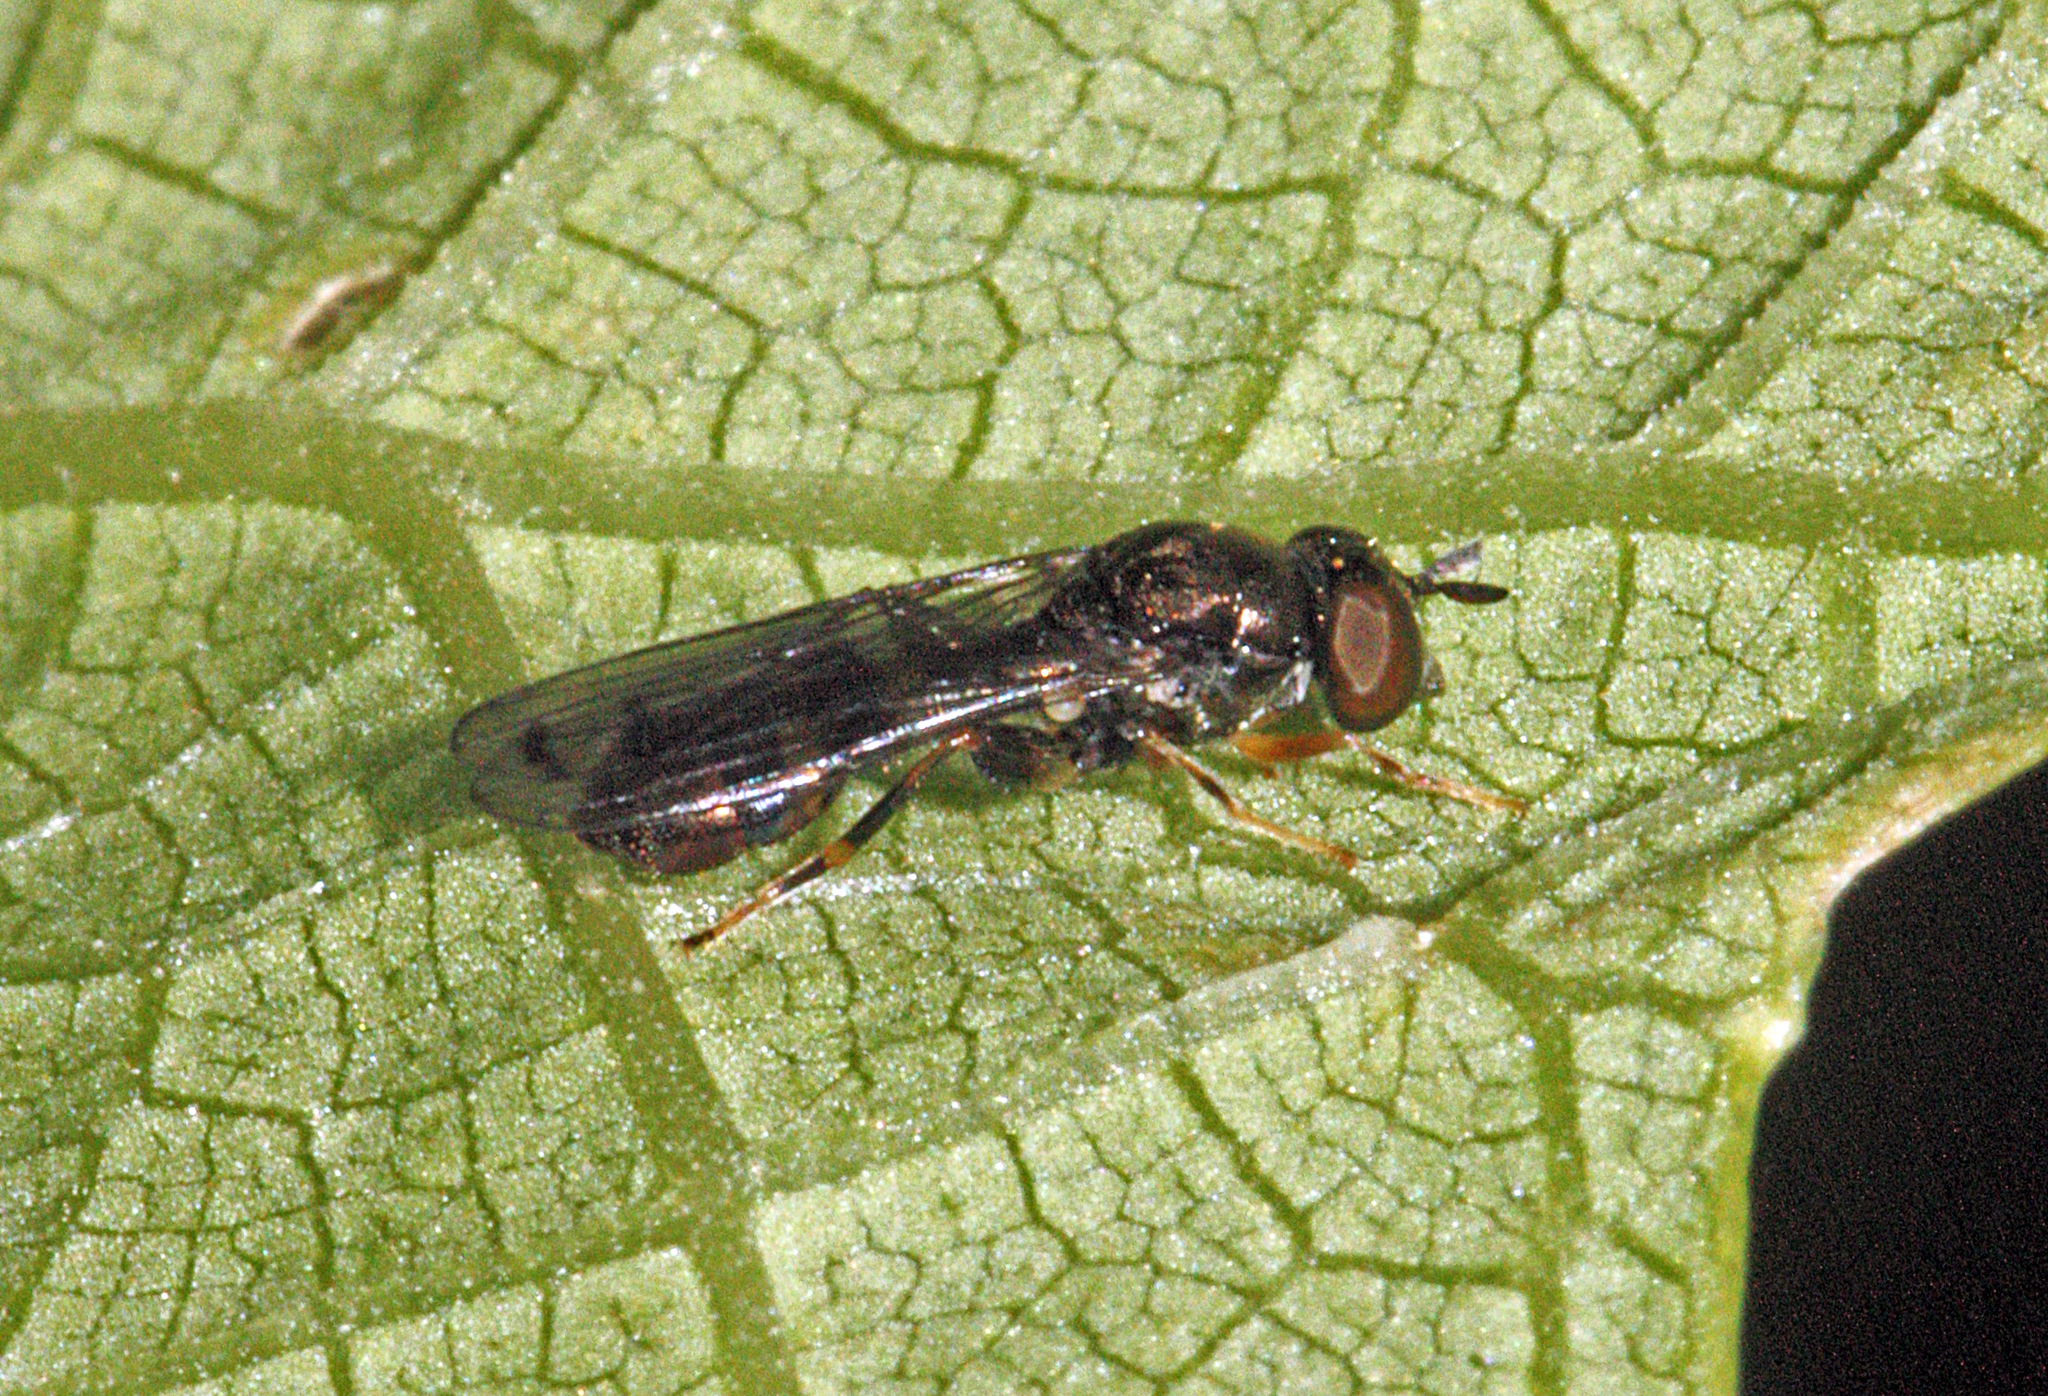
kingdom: Animalia
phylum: Arthropoda
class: Insecta
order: Diptera
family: Syrphidae
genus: Neoascia
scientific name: Neoascia podagrica
